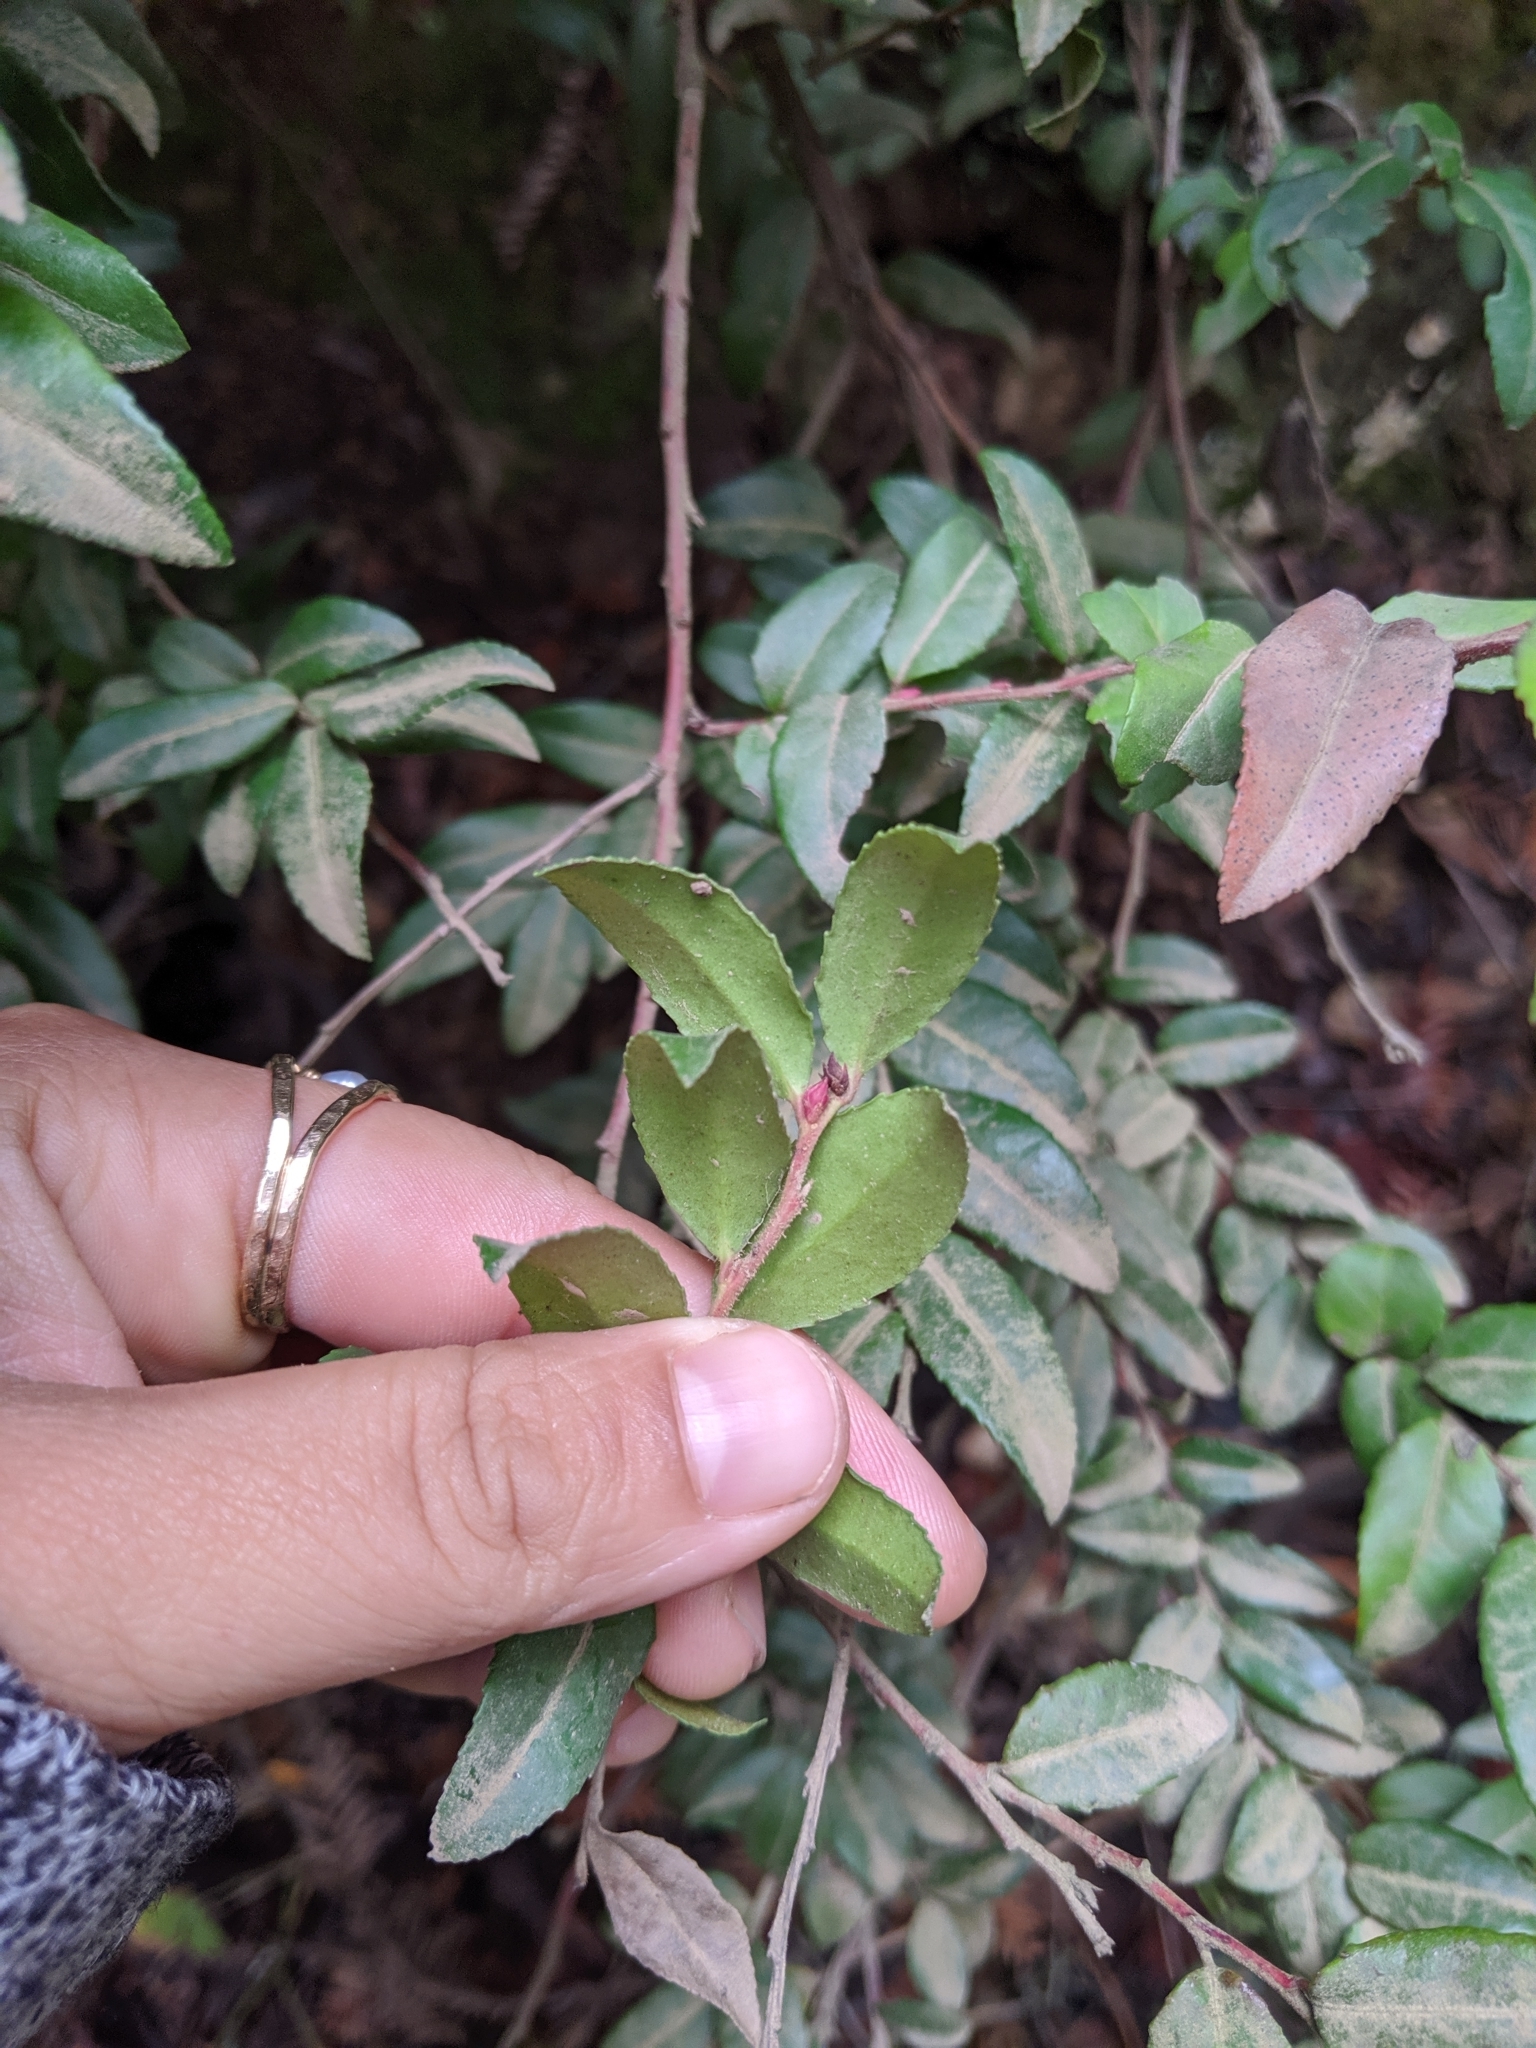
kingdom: Plantae
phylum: Tracheophyta
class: Magnoliopsida
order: Ericales
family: Ericaceae
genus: Vaccinium
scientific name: Vaccinium ovatum
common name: California-huckleberry
